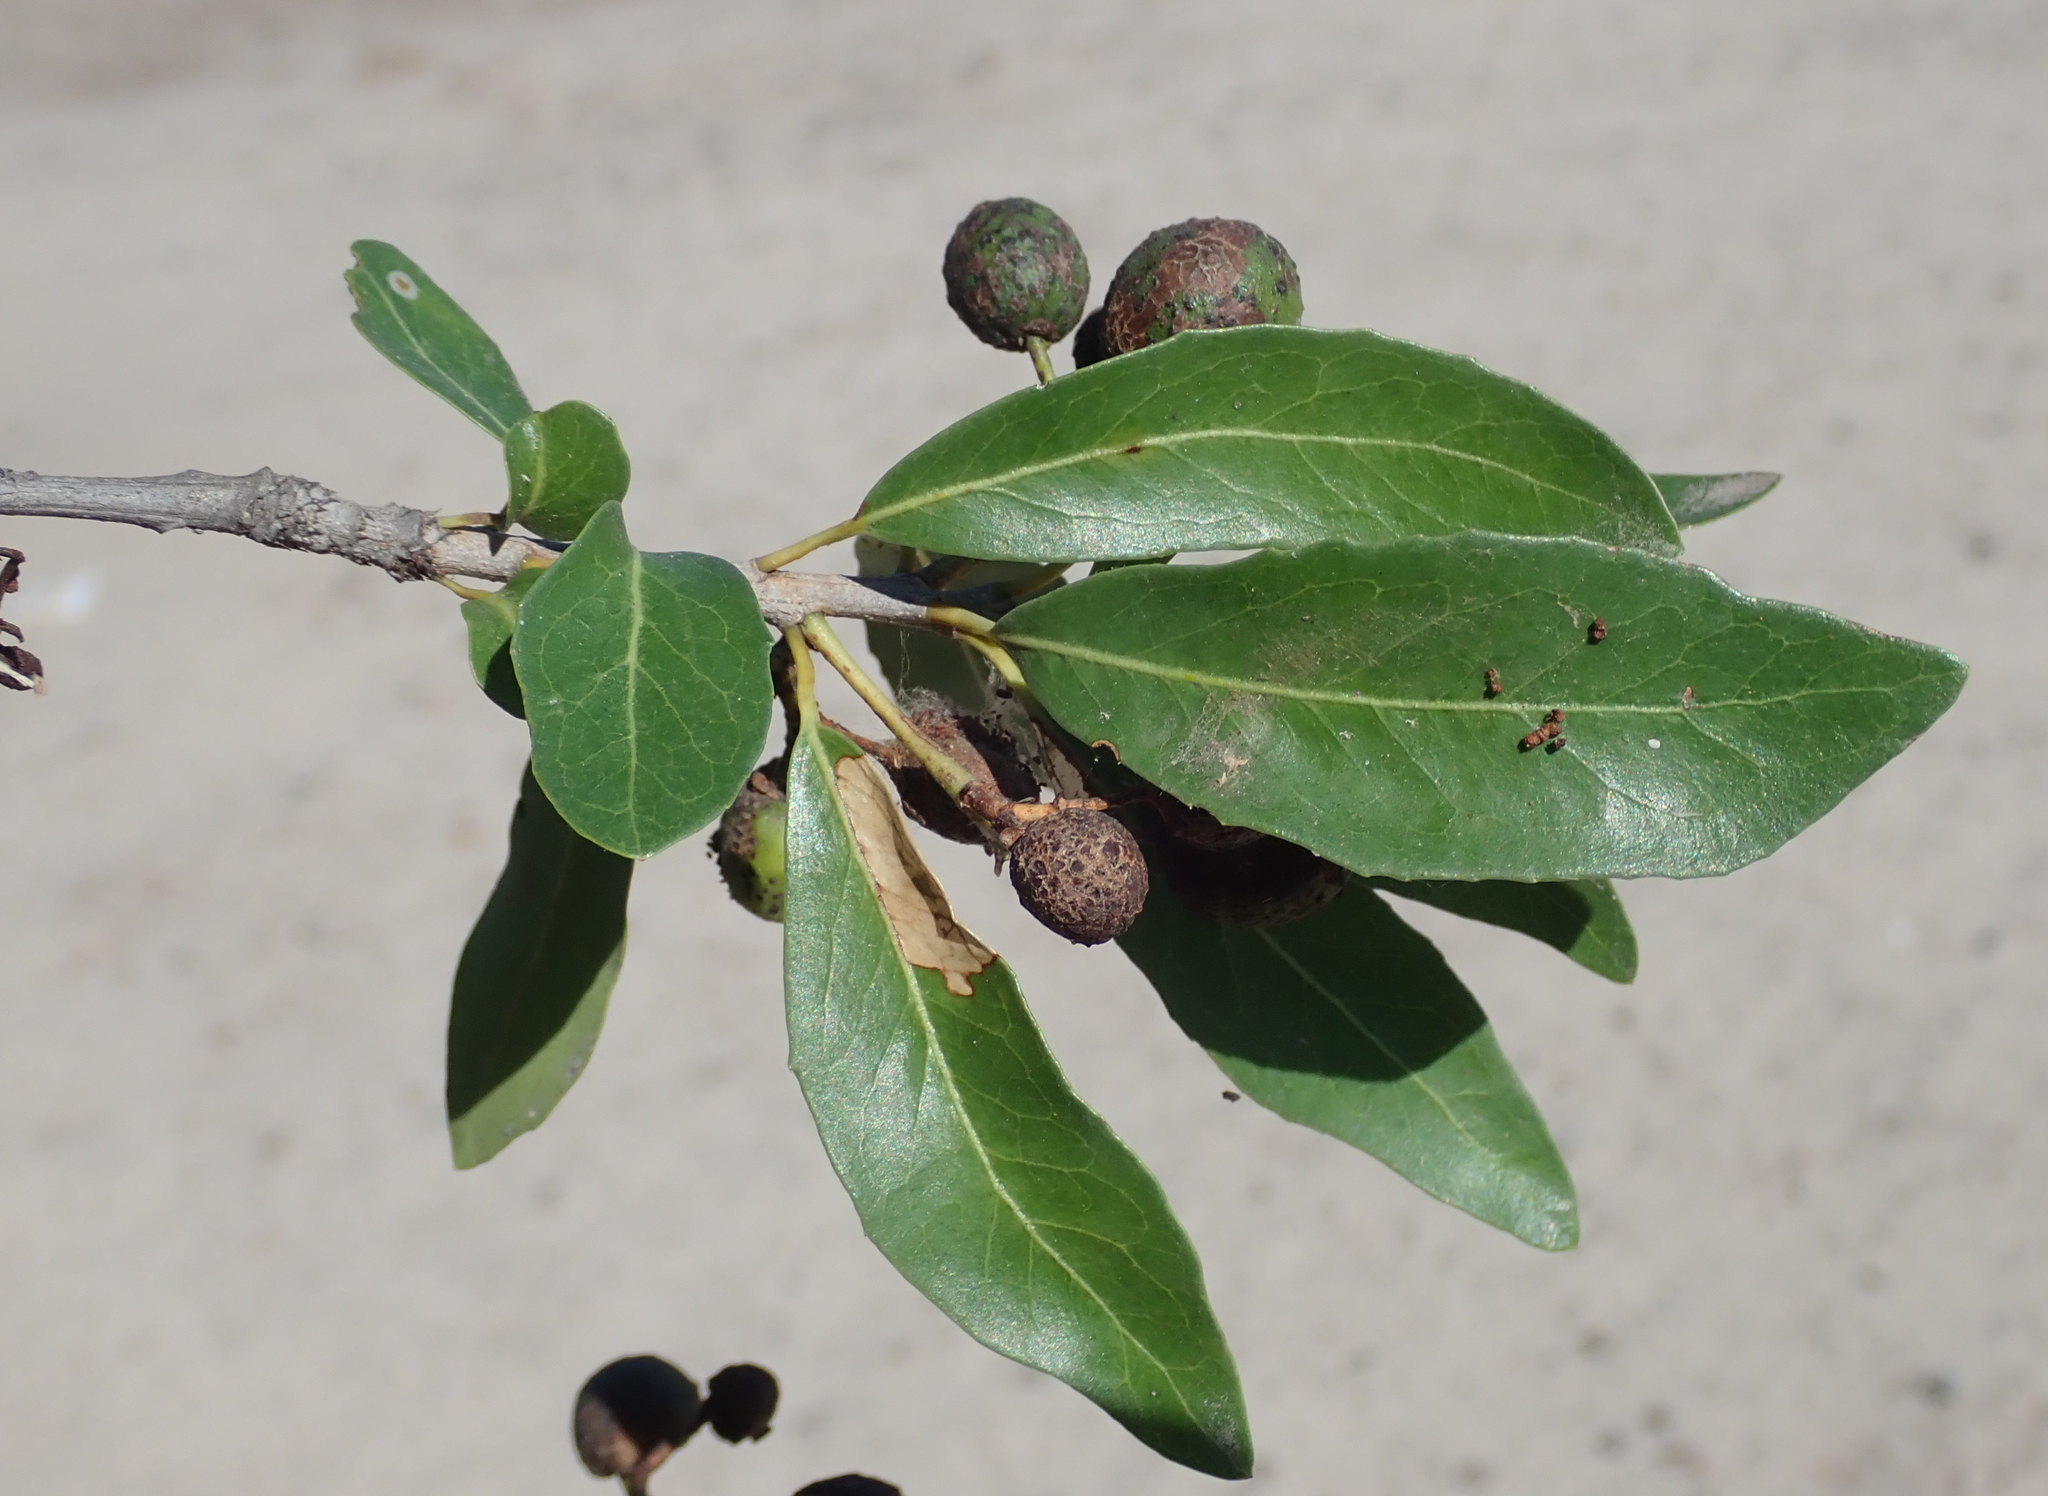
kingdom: Plantae
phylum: Tracheophyta
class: Magnoliopsida
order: Celastrales
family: Celastraceae
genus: Elaeodendron
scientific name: Elaeodendron transvaalense
